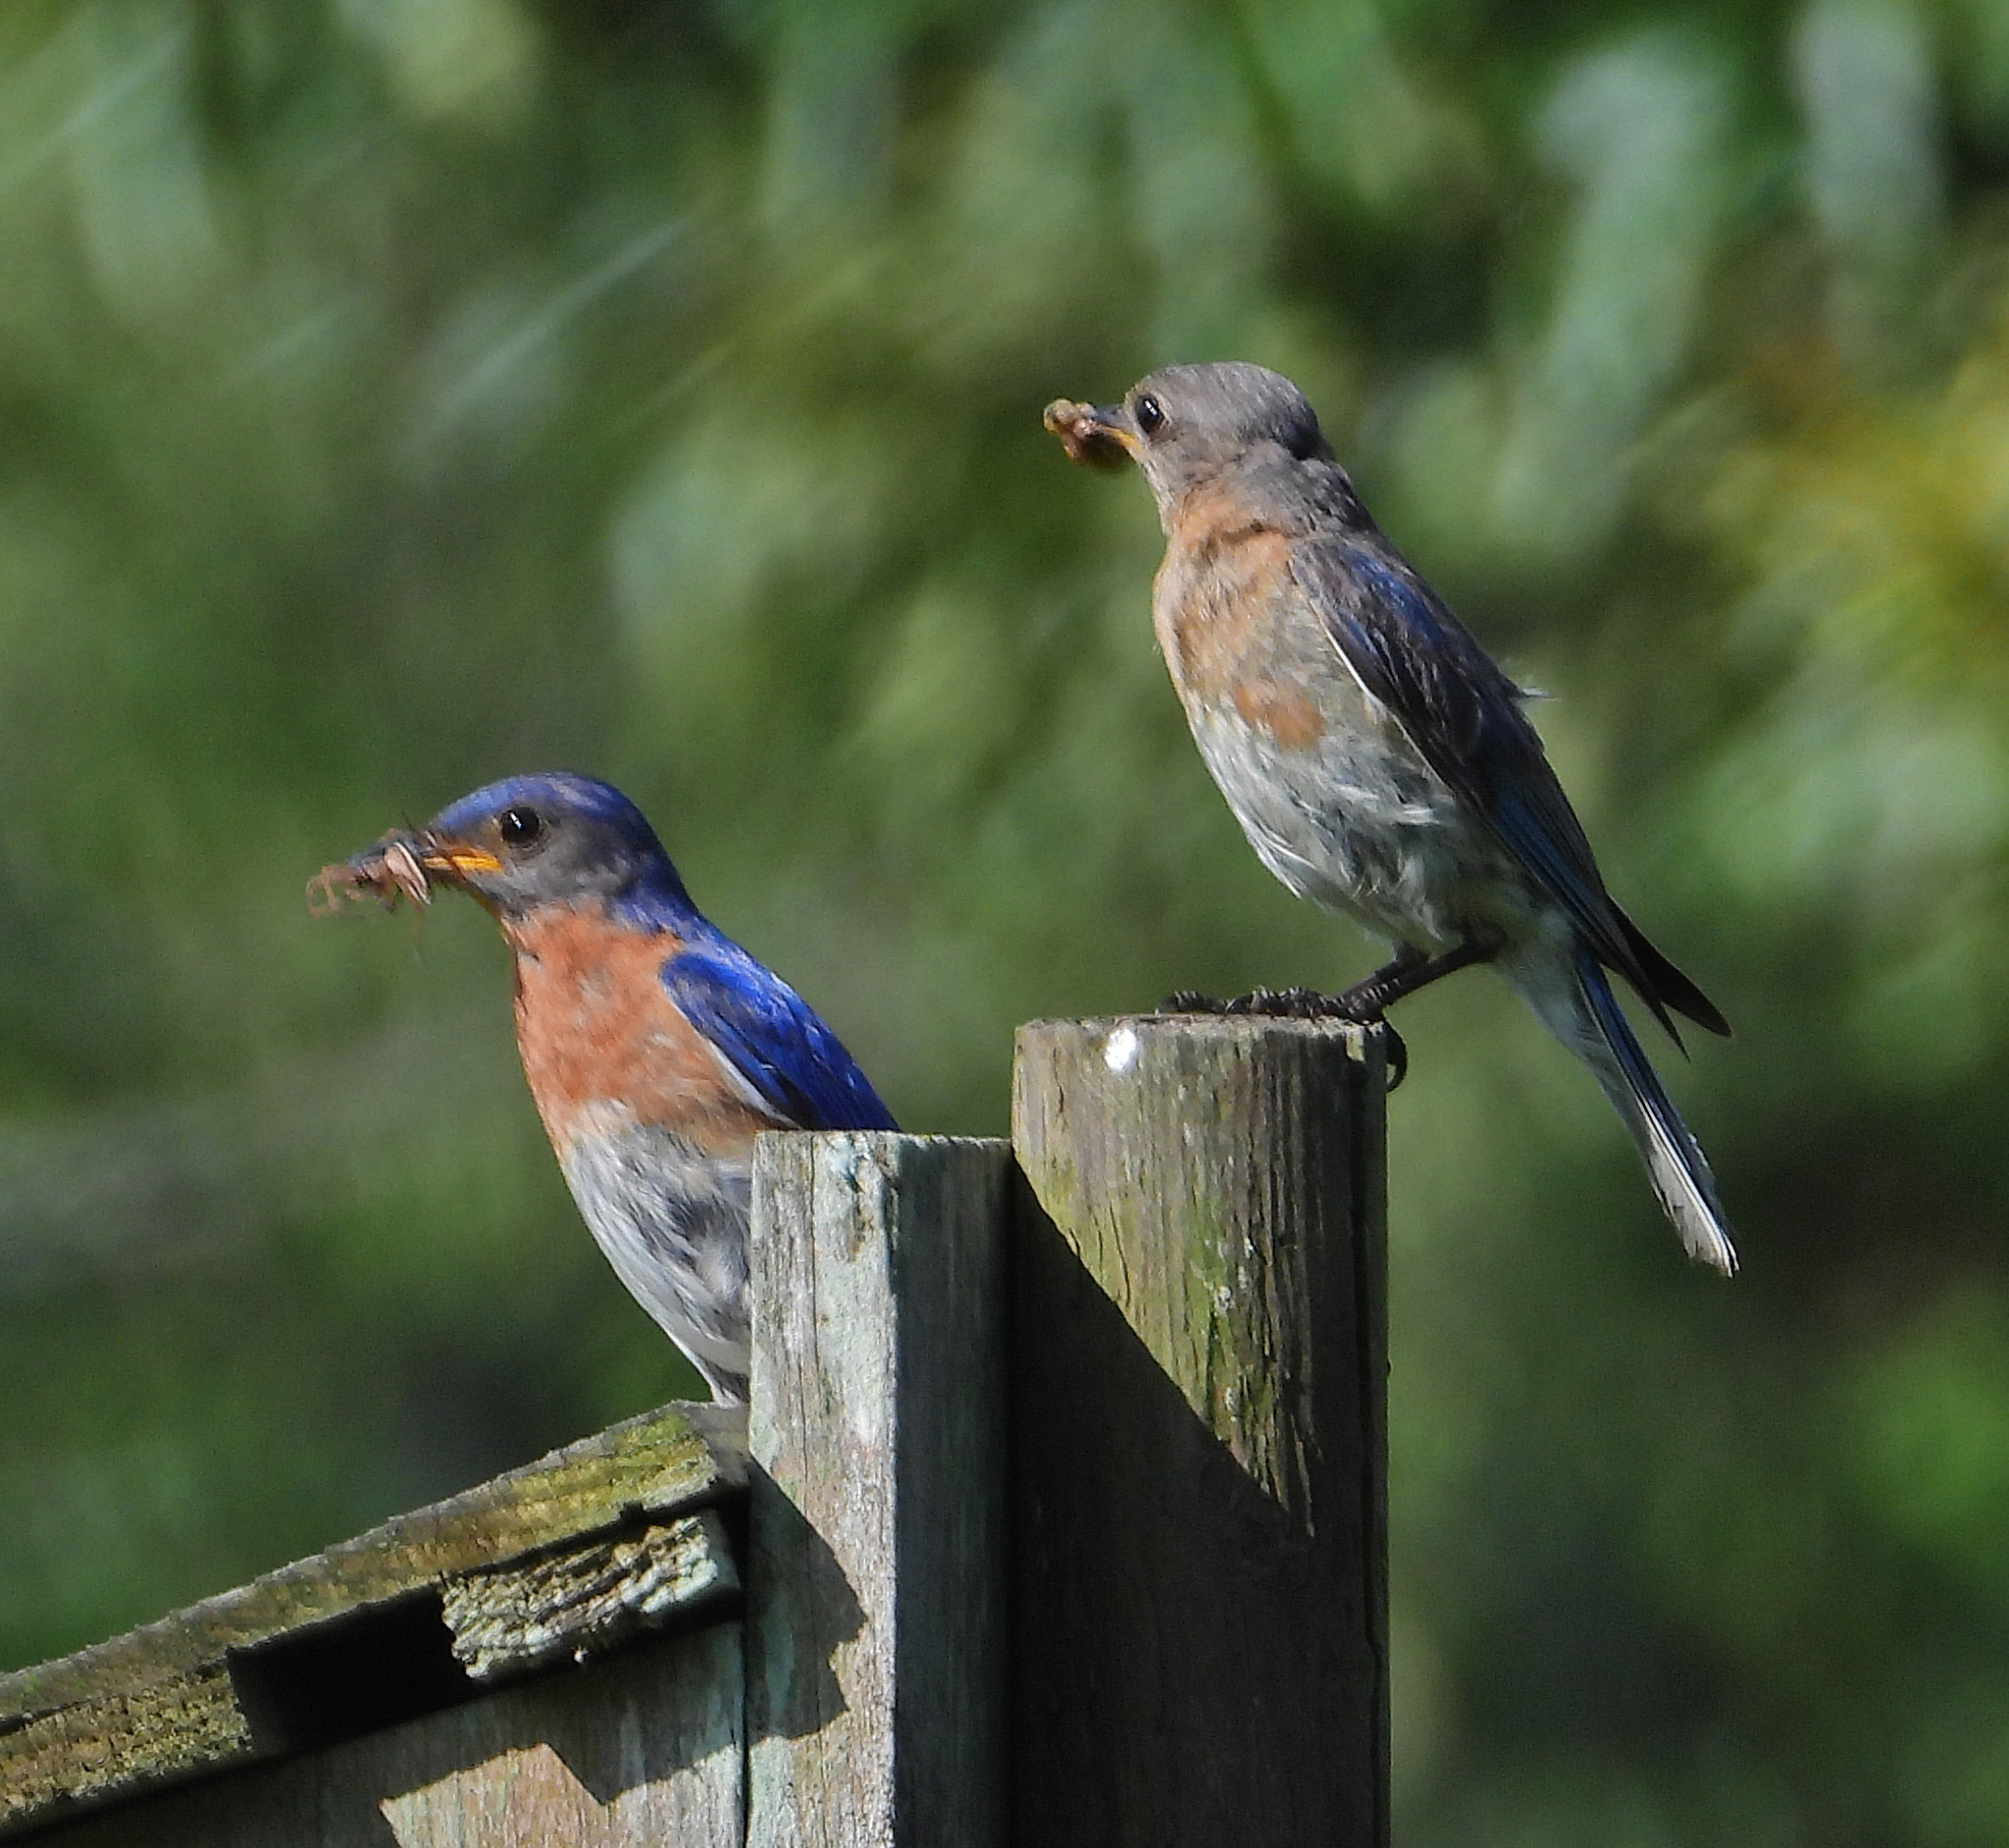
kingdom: Animalia
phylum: Chordata
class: Aves
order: Passeriformes
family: Turdidae
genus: Sialia
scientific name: Sialia sialis
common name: Eastern bluebird
